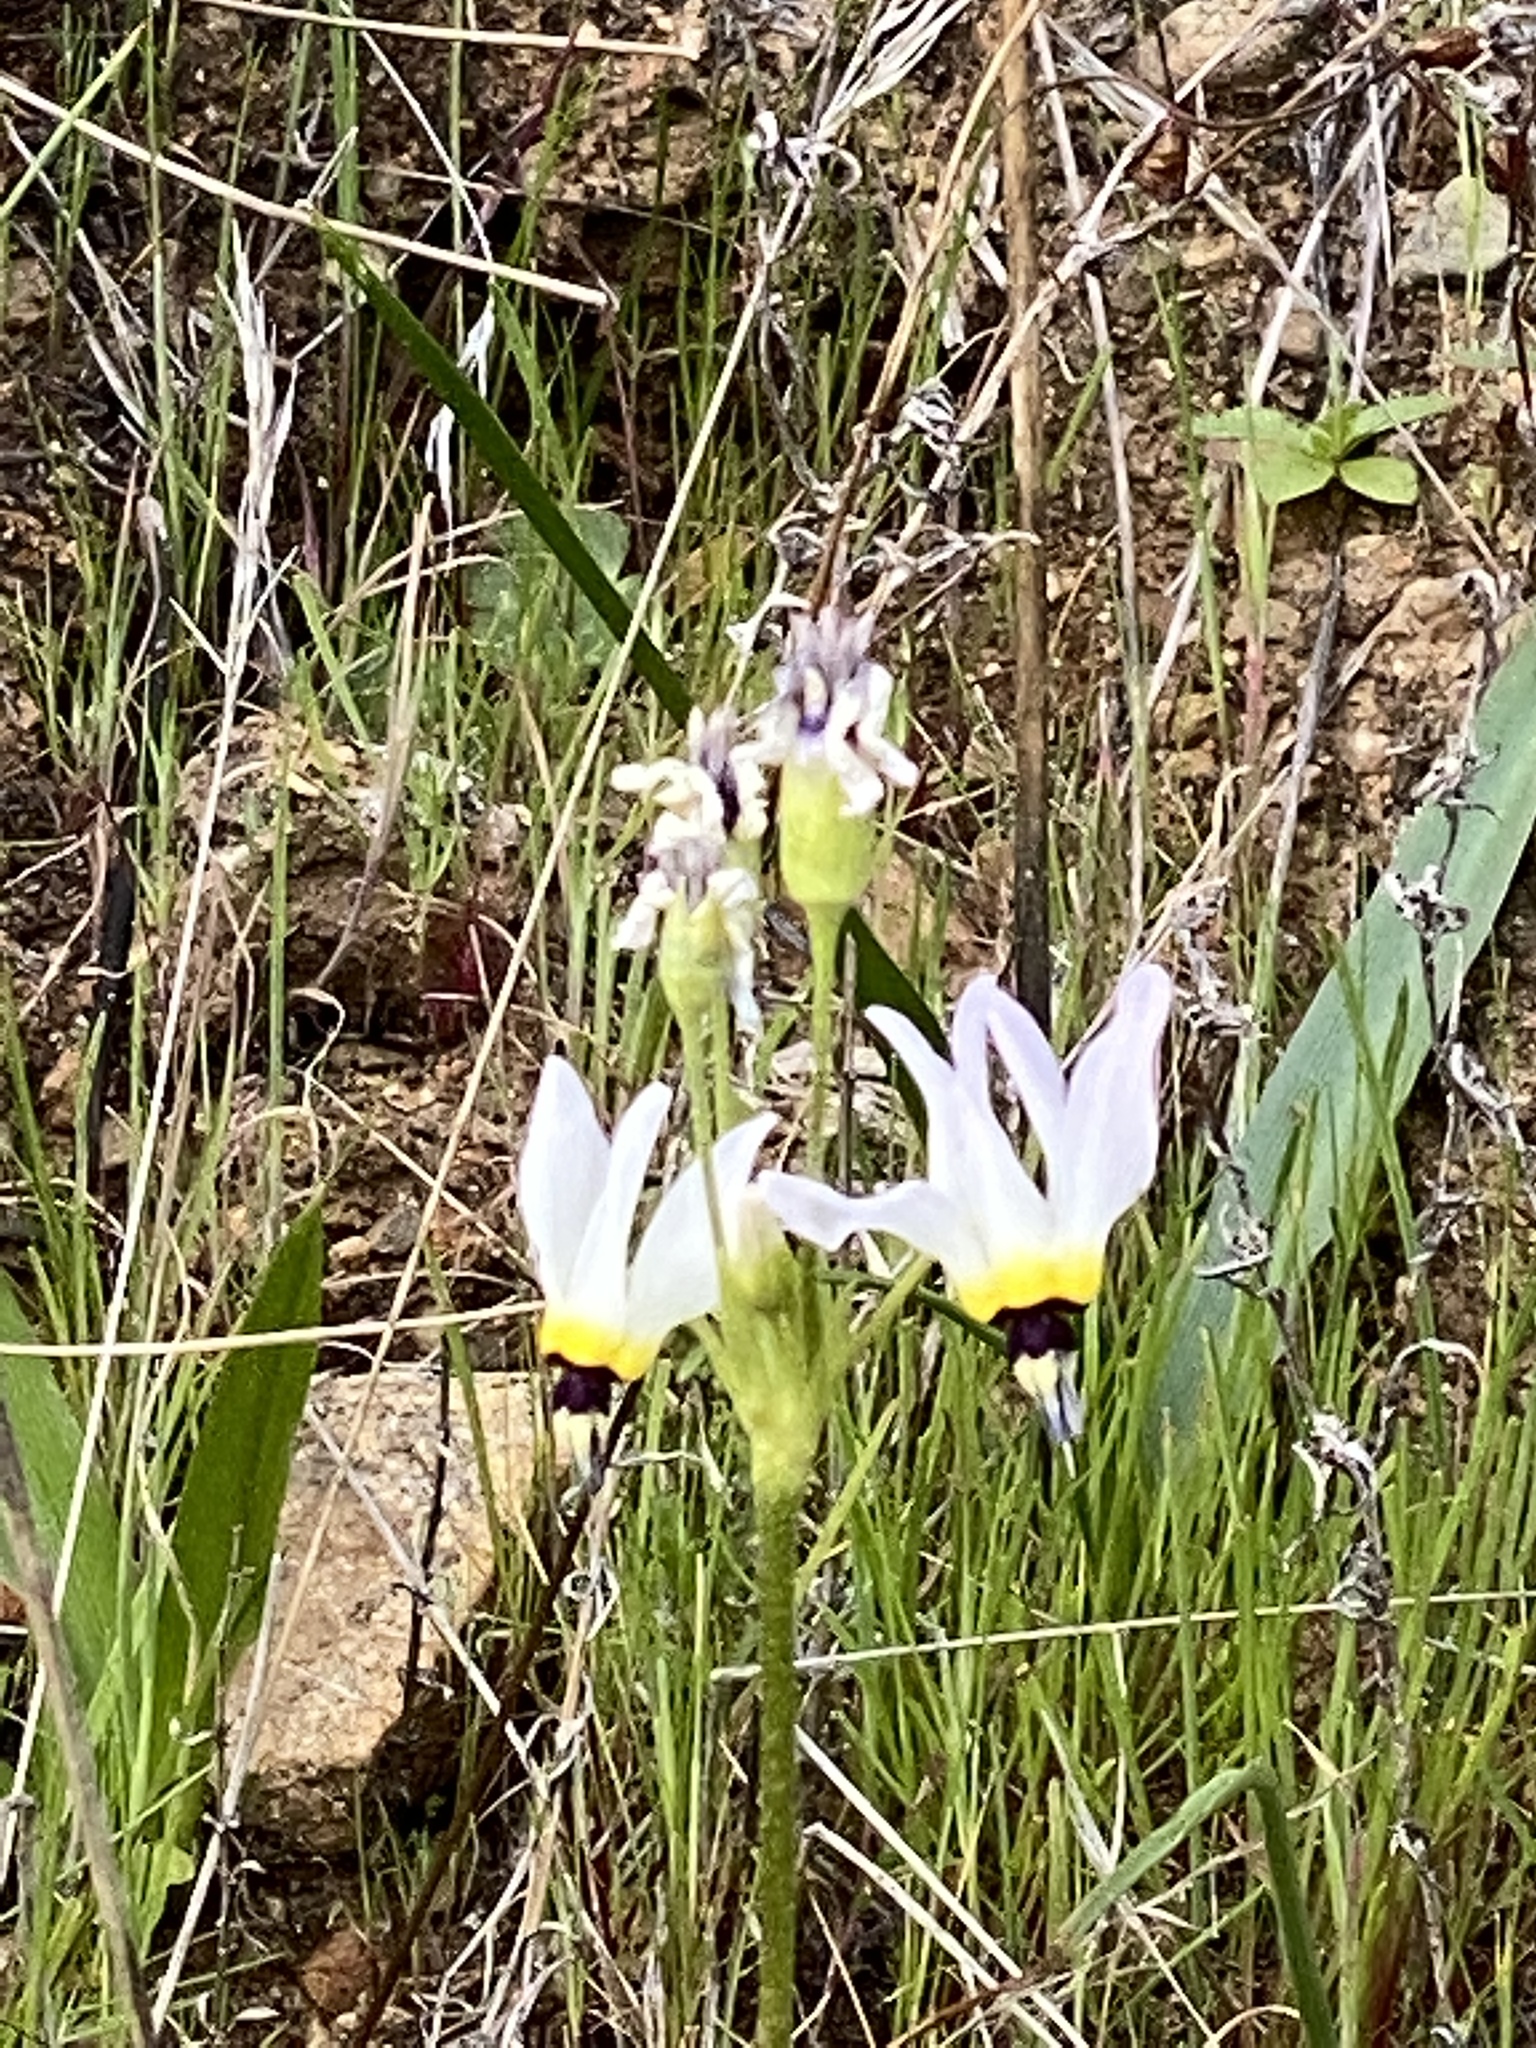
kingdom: Plantae
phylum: Tracheophyta
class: Magnoliopsida
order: Ericales
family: Primulaceae
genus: Dodecatheon
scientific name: Dodecatheon clevelandii
